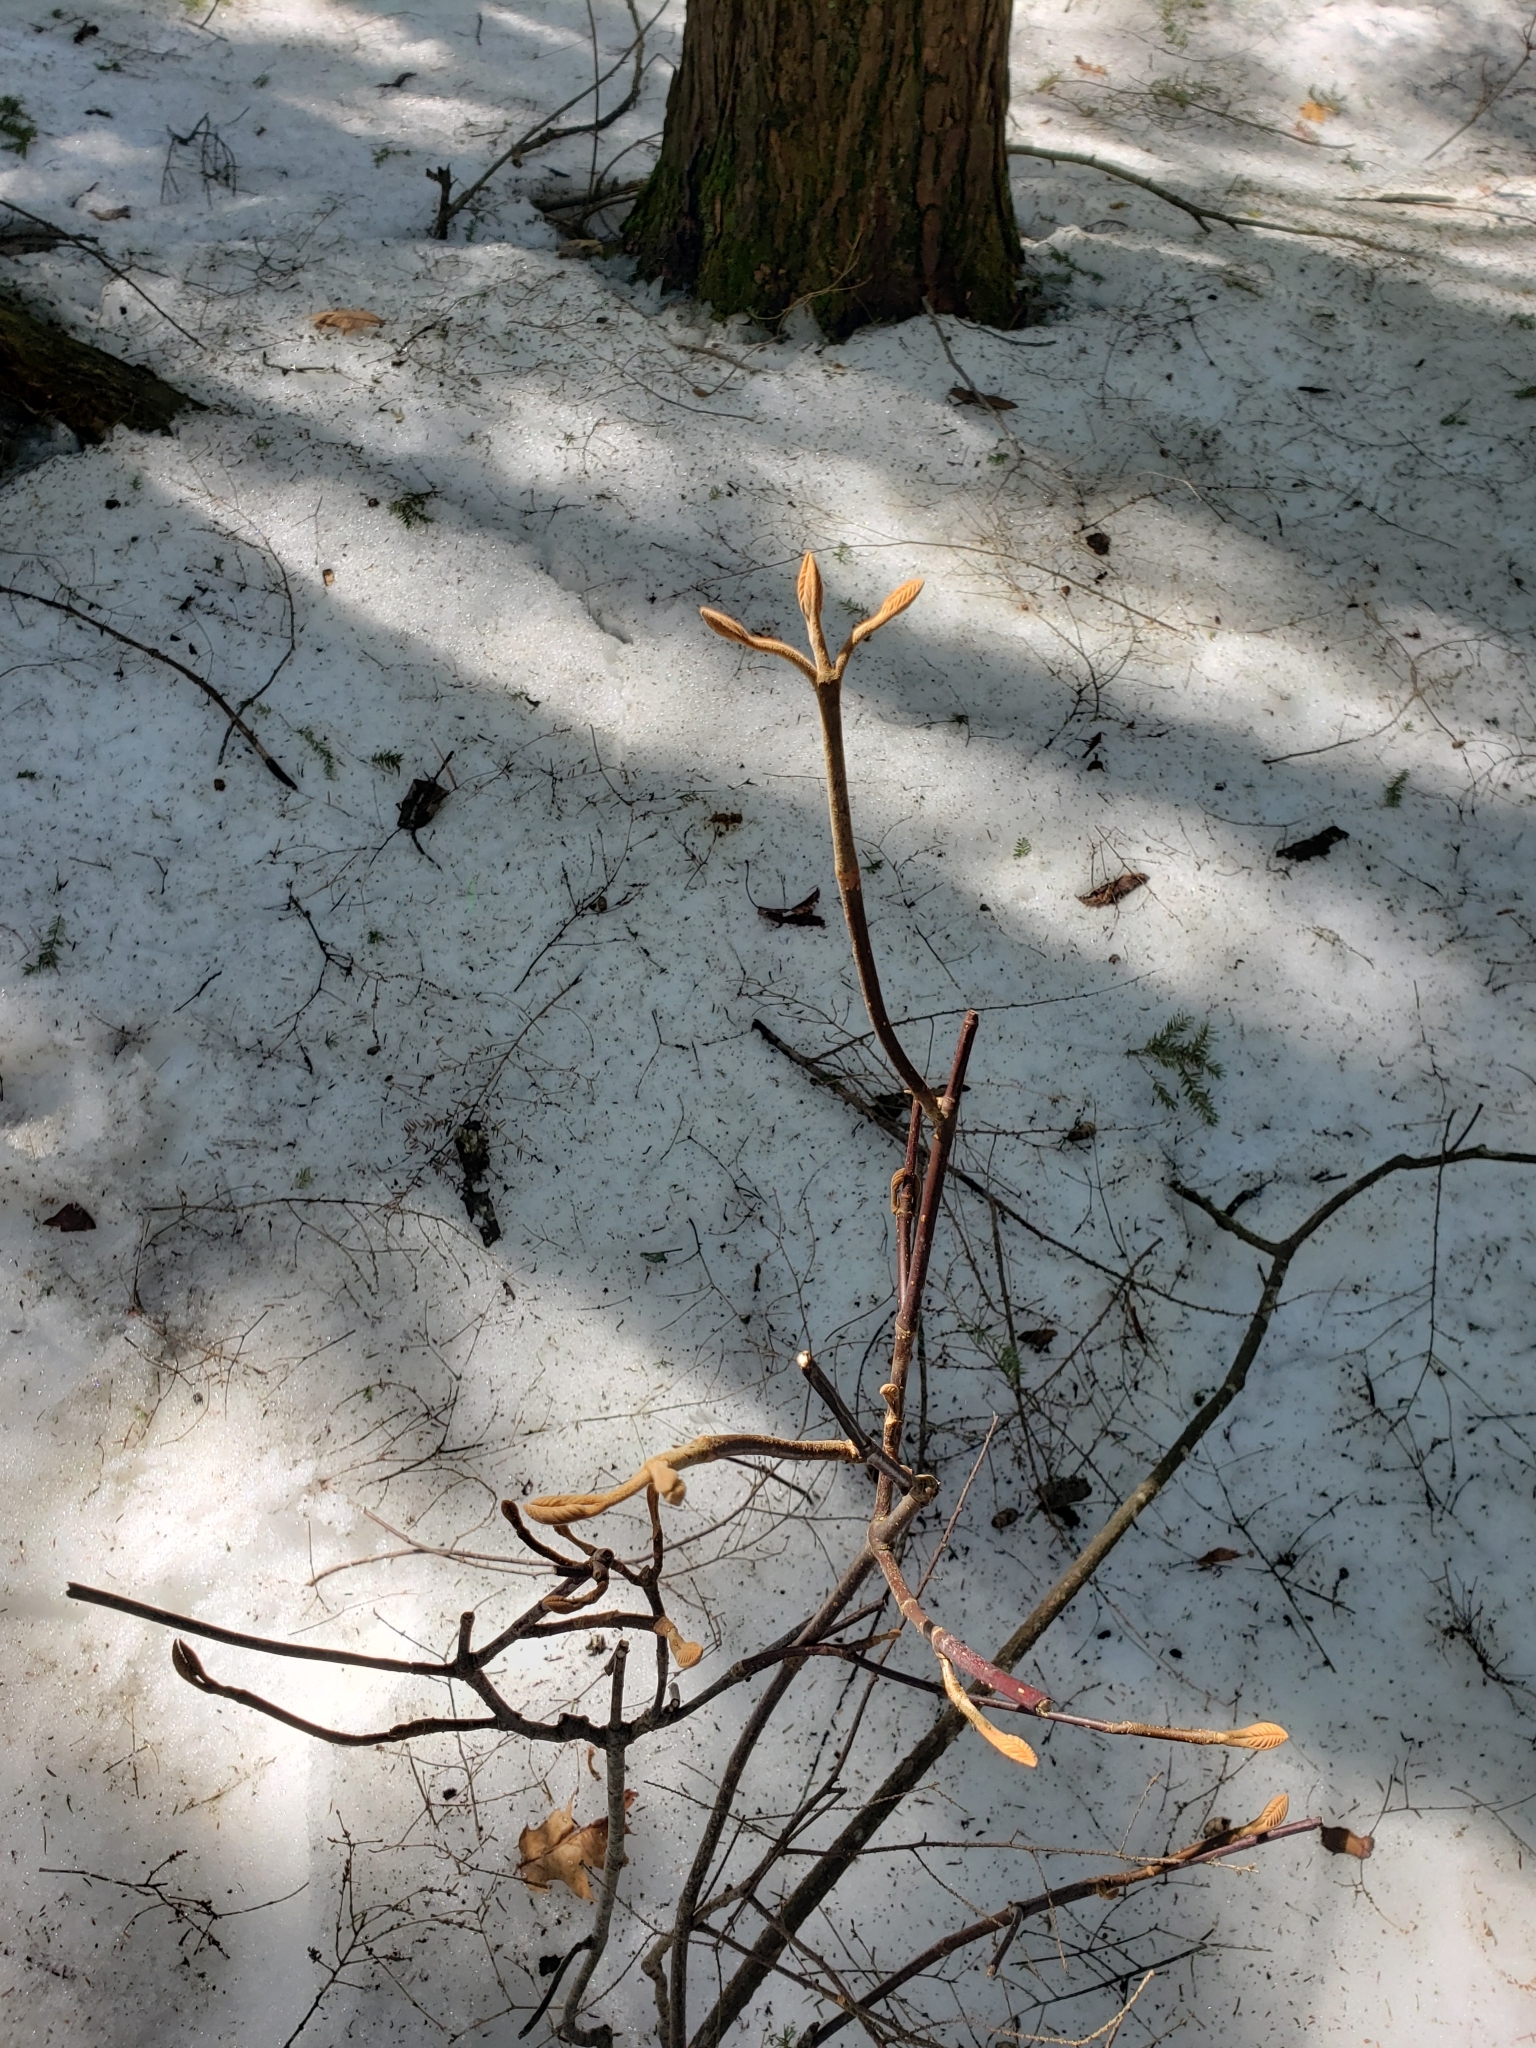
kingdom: Plantae
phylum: Tracheophyta
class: Magnoliopsida
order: Dipsacales
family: Viburnaceae
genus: Viburnum
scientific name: Viburnum lantanoides
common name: Hobblebush
